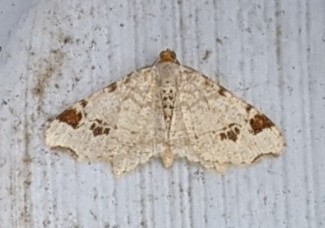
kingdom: Animalia
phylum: Arthropoda
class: Insecta
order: Lepidoptera
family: Geometridae
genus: Macaria
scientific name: Macaria aemulataria
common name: Common angle
